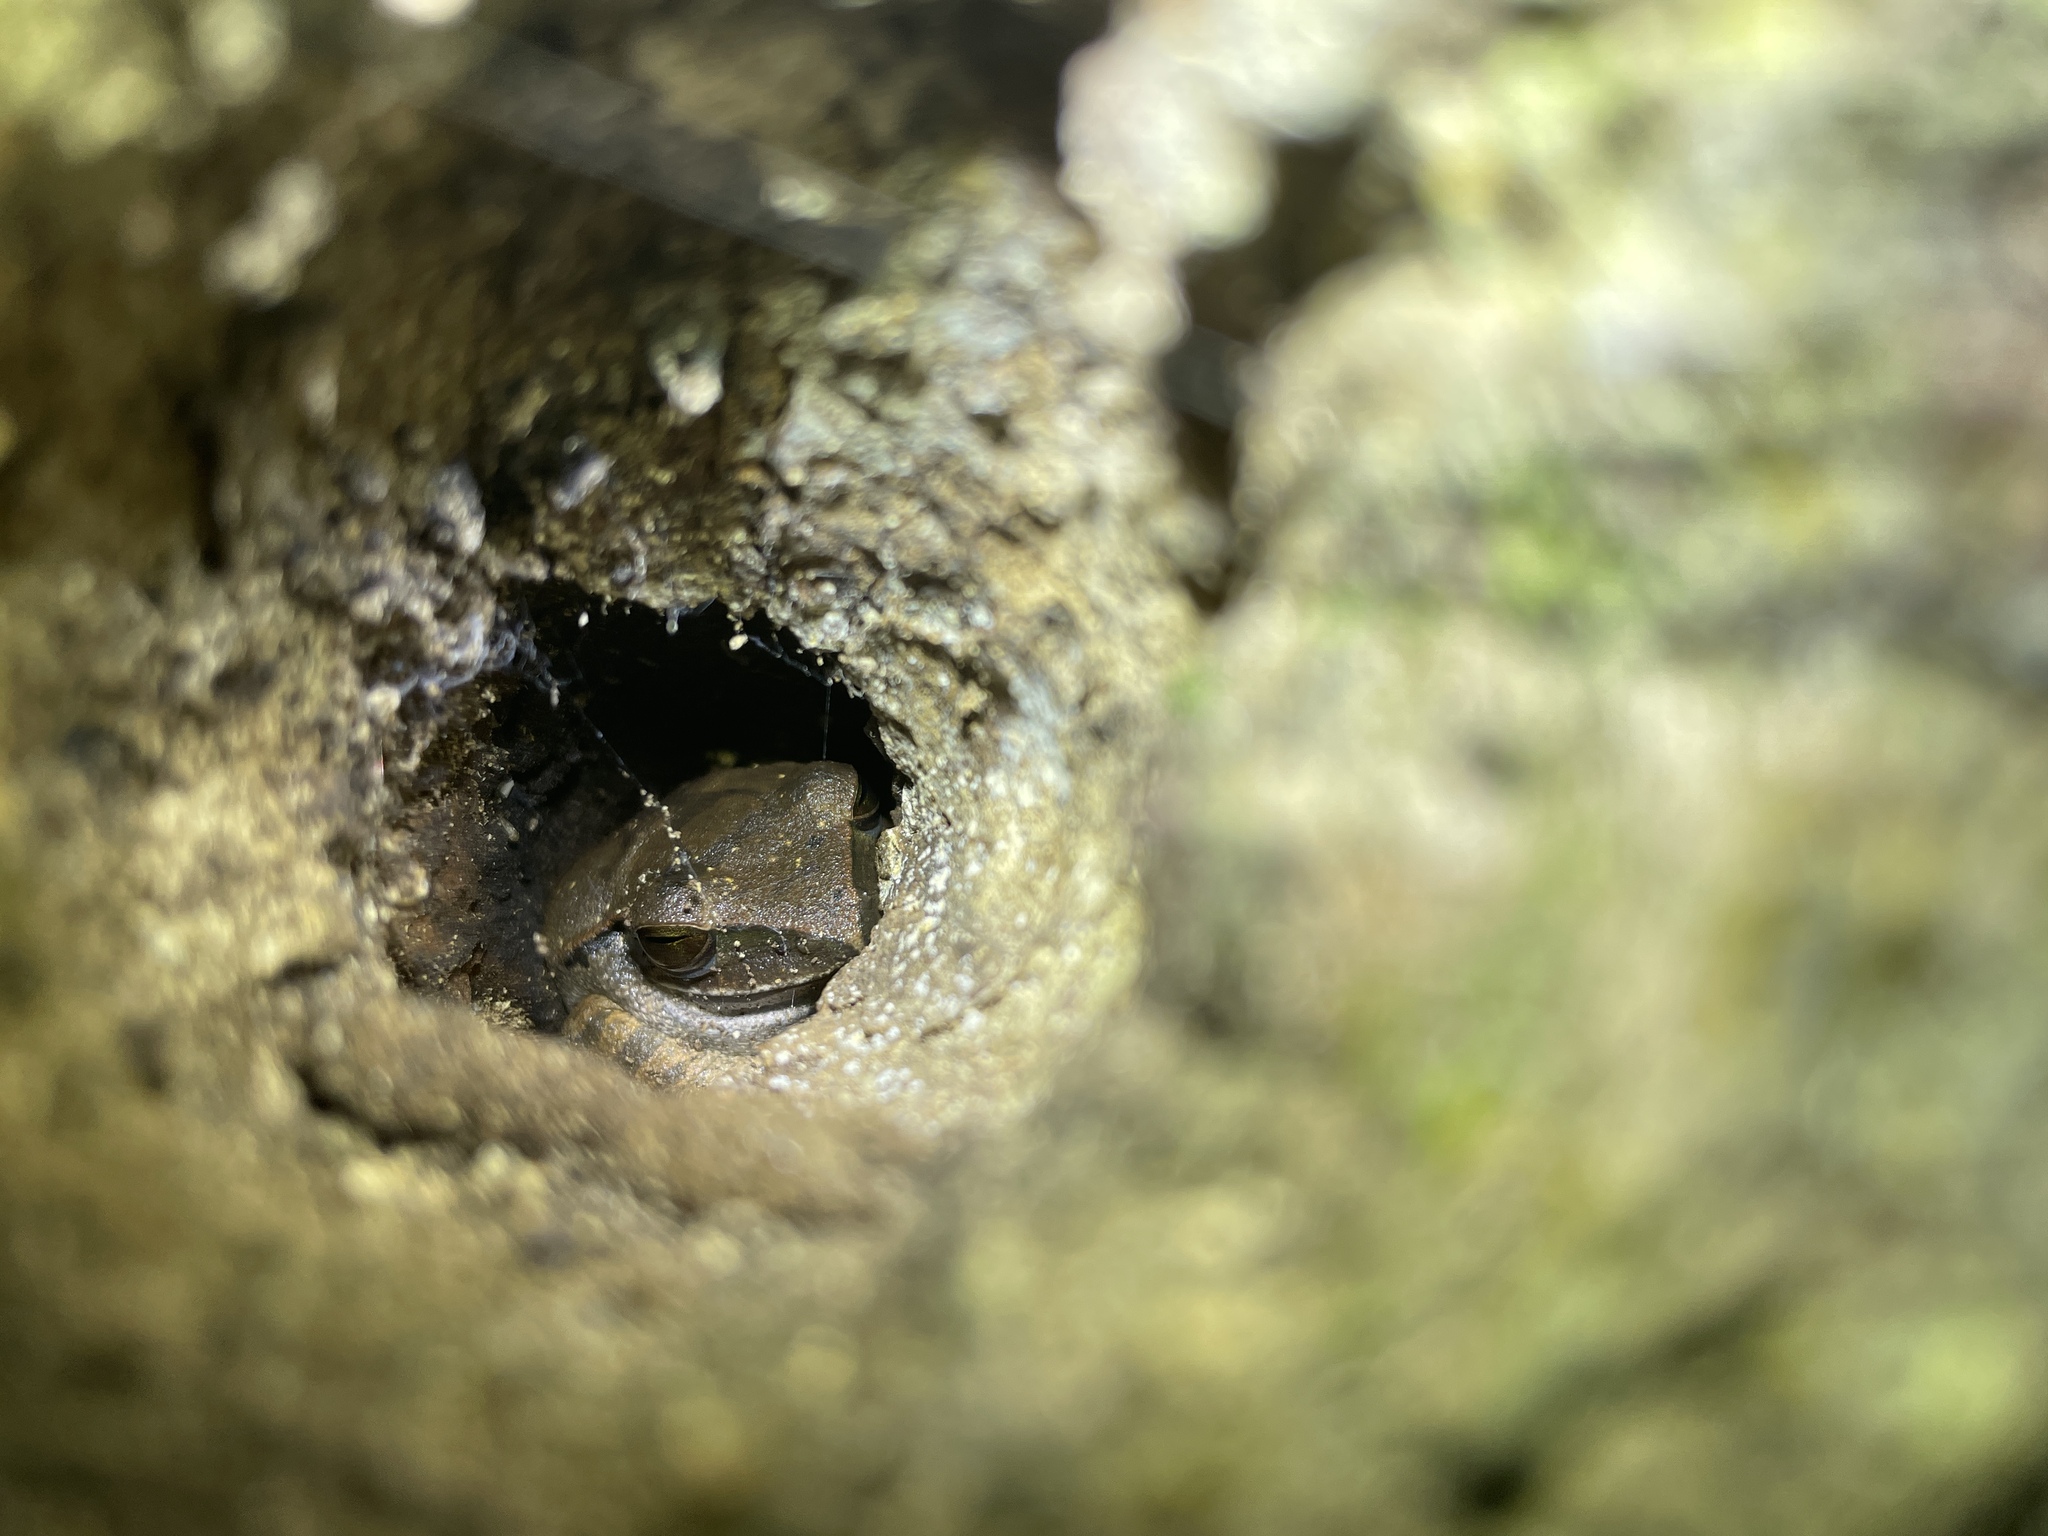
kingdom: Animalia
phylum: Chordata
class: Amphibia
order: Anura
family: Rhacophoridae
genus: Polypedates
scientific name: Polypedates megacephalus
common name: Hong kong whipping frog
